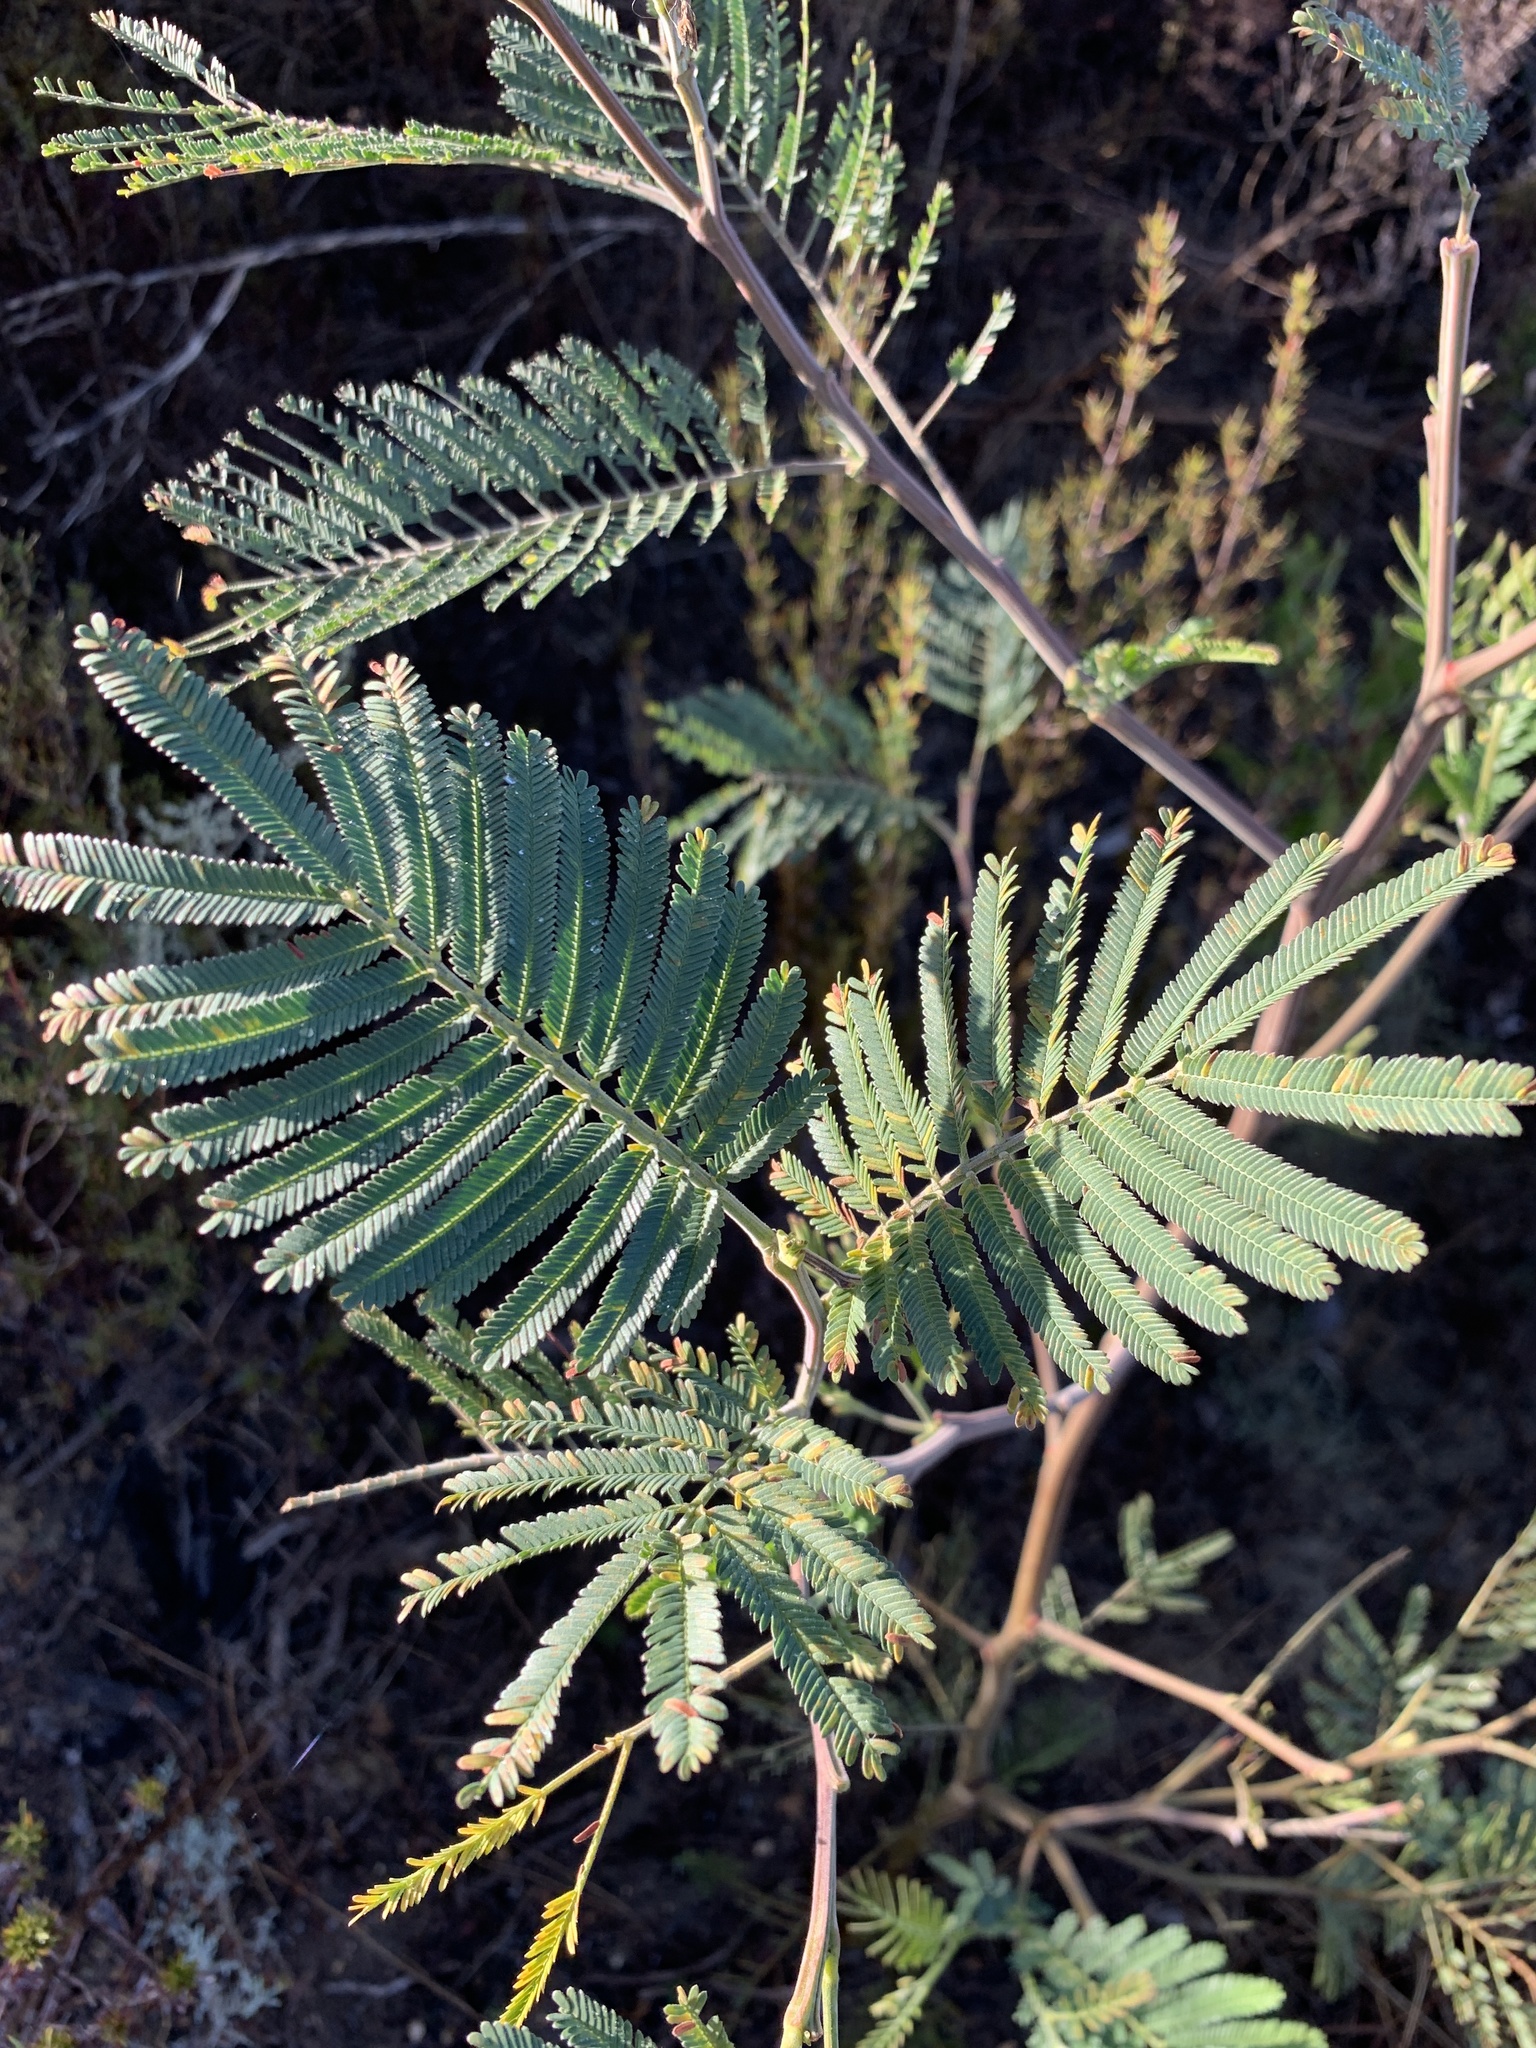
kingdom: Plantae
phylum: Tracheophyta
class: Magnoliopsida
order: Fabales
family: Fabaceae
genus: Acacia
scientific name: Acacia mearnsii
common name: Black wattle
